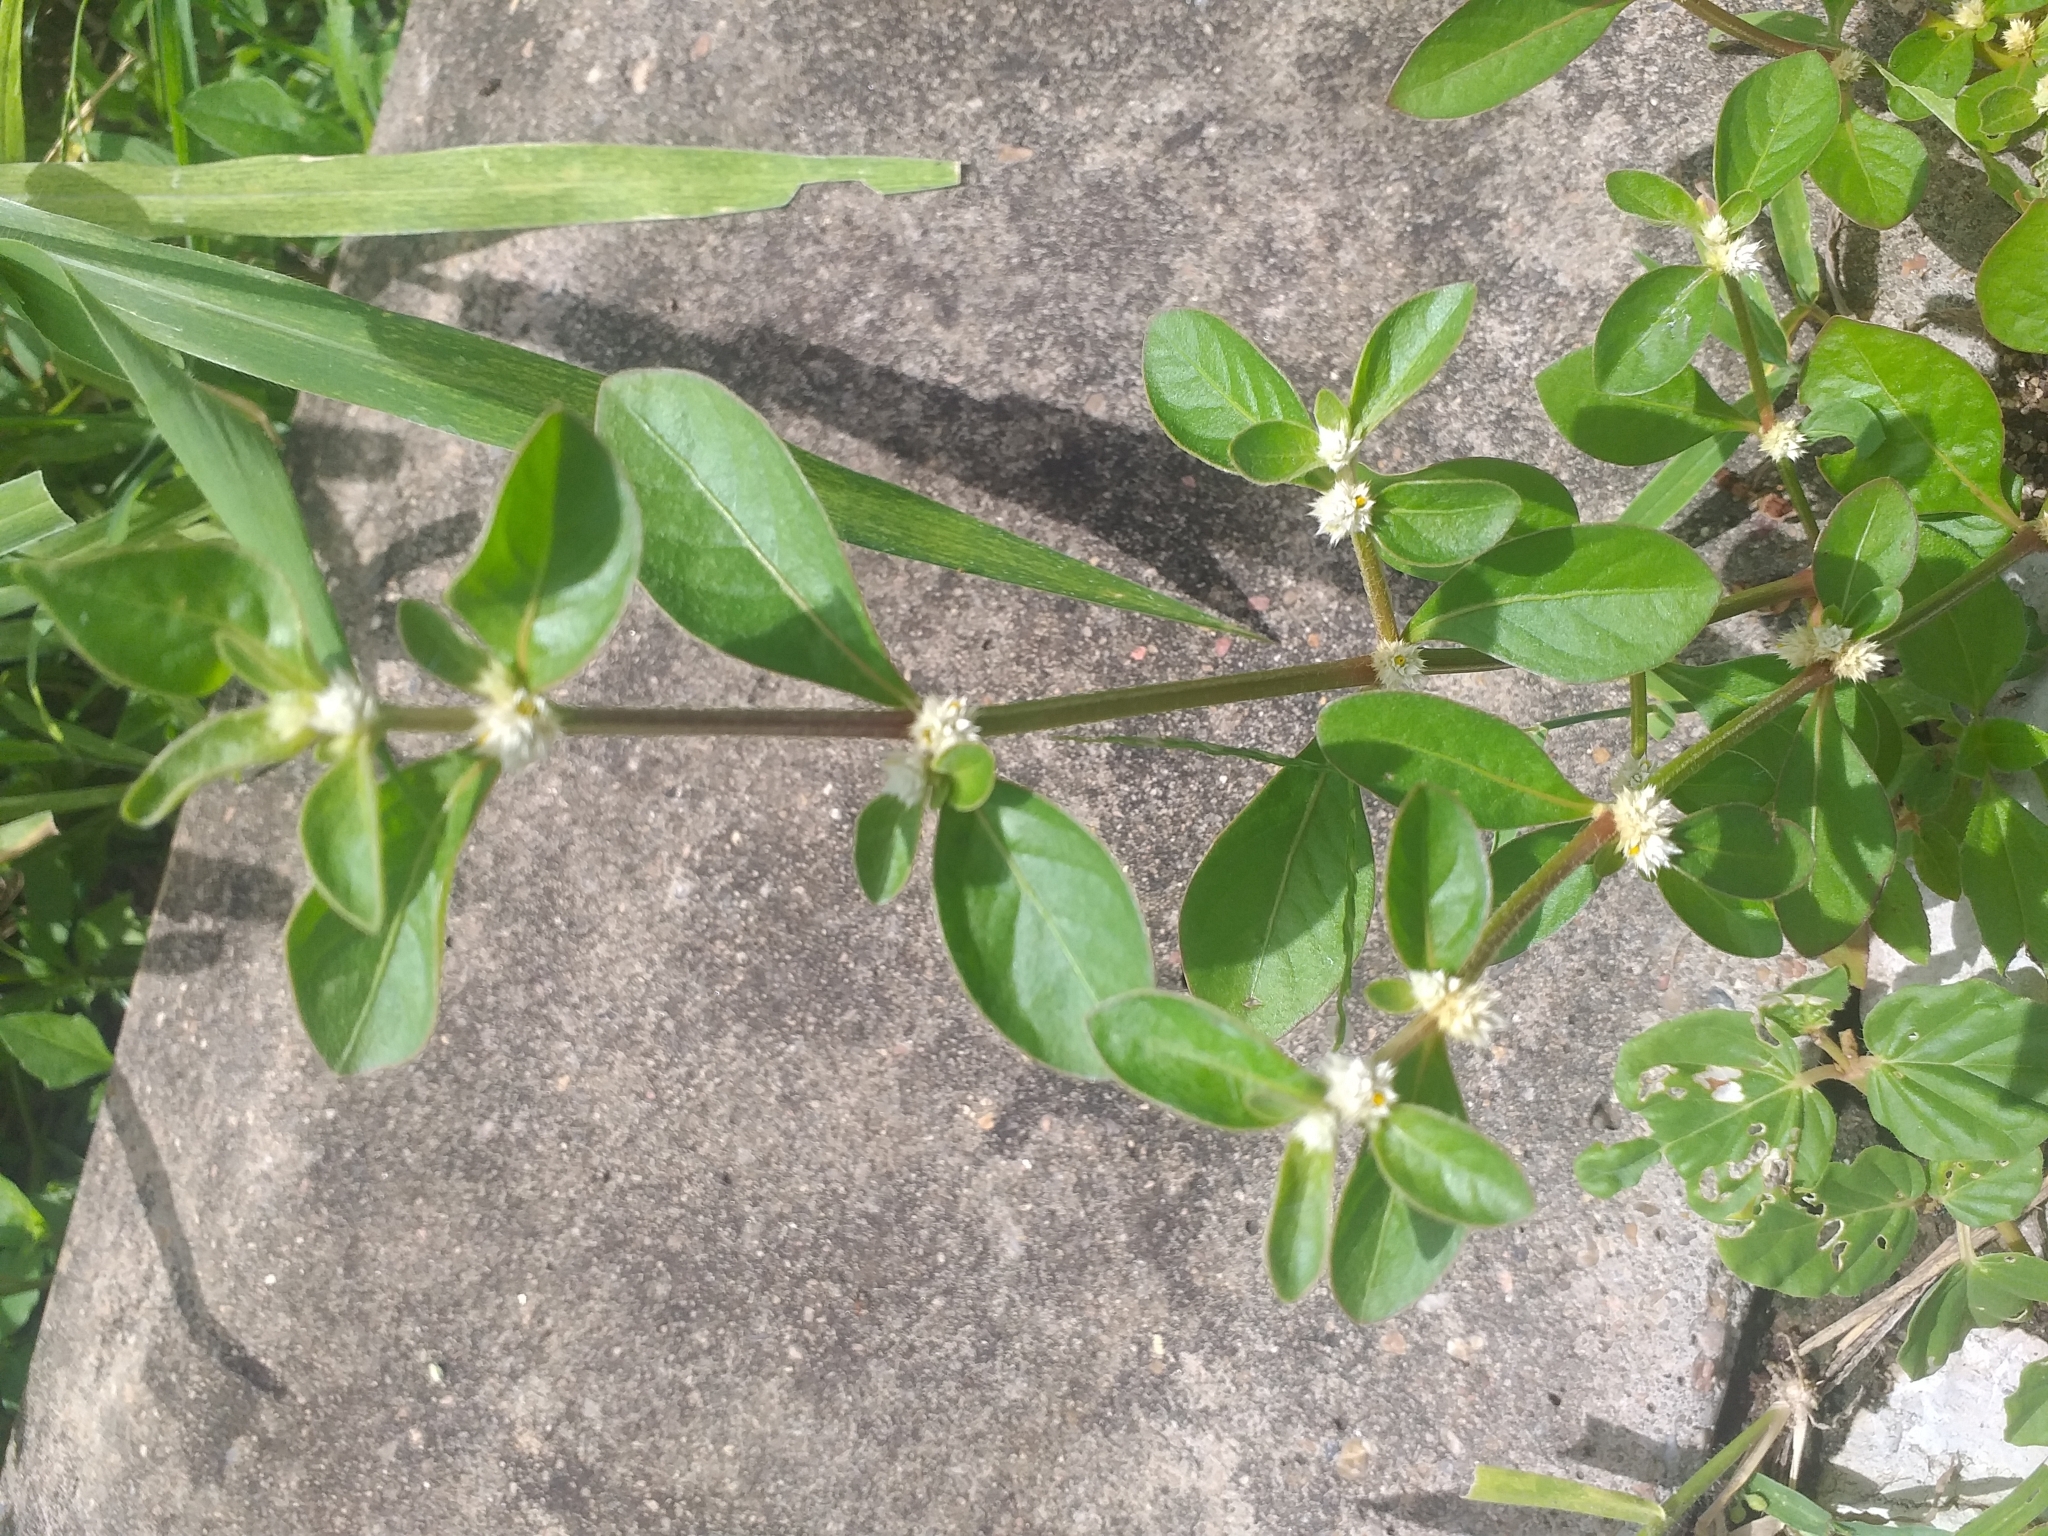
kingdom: Plantae
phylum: Tracheophyta
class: Magnoliopsida
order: Caryophyllales
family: Amaranthaceae
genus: Alternanthera
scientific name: Alternanthera ficoidea
